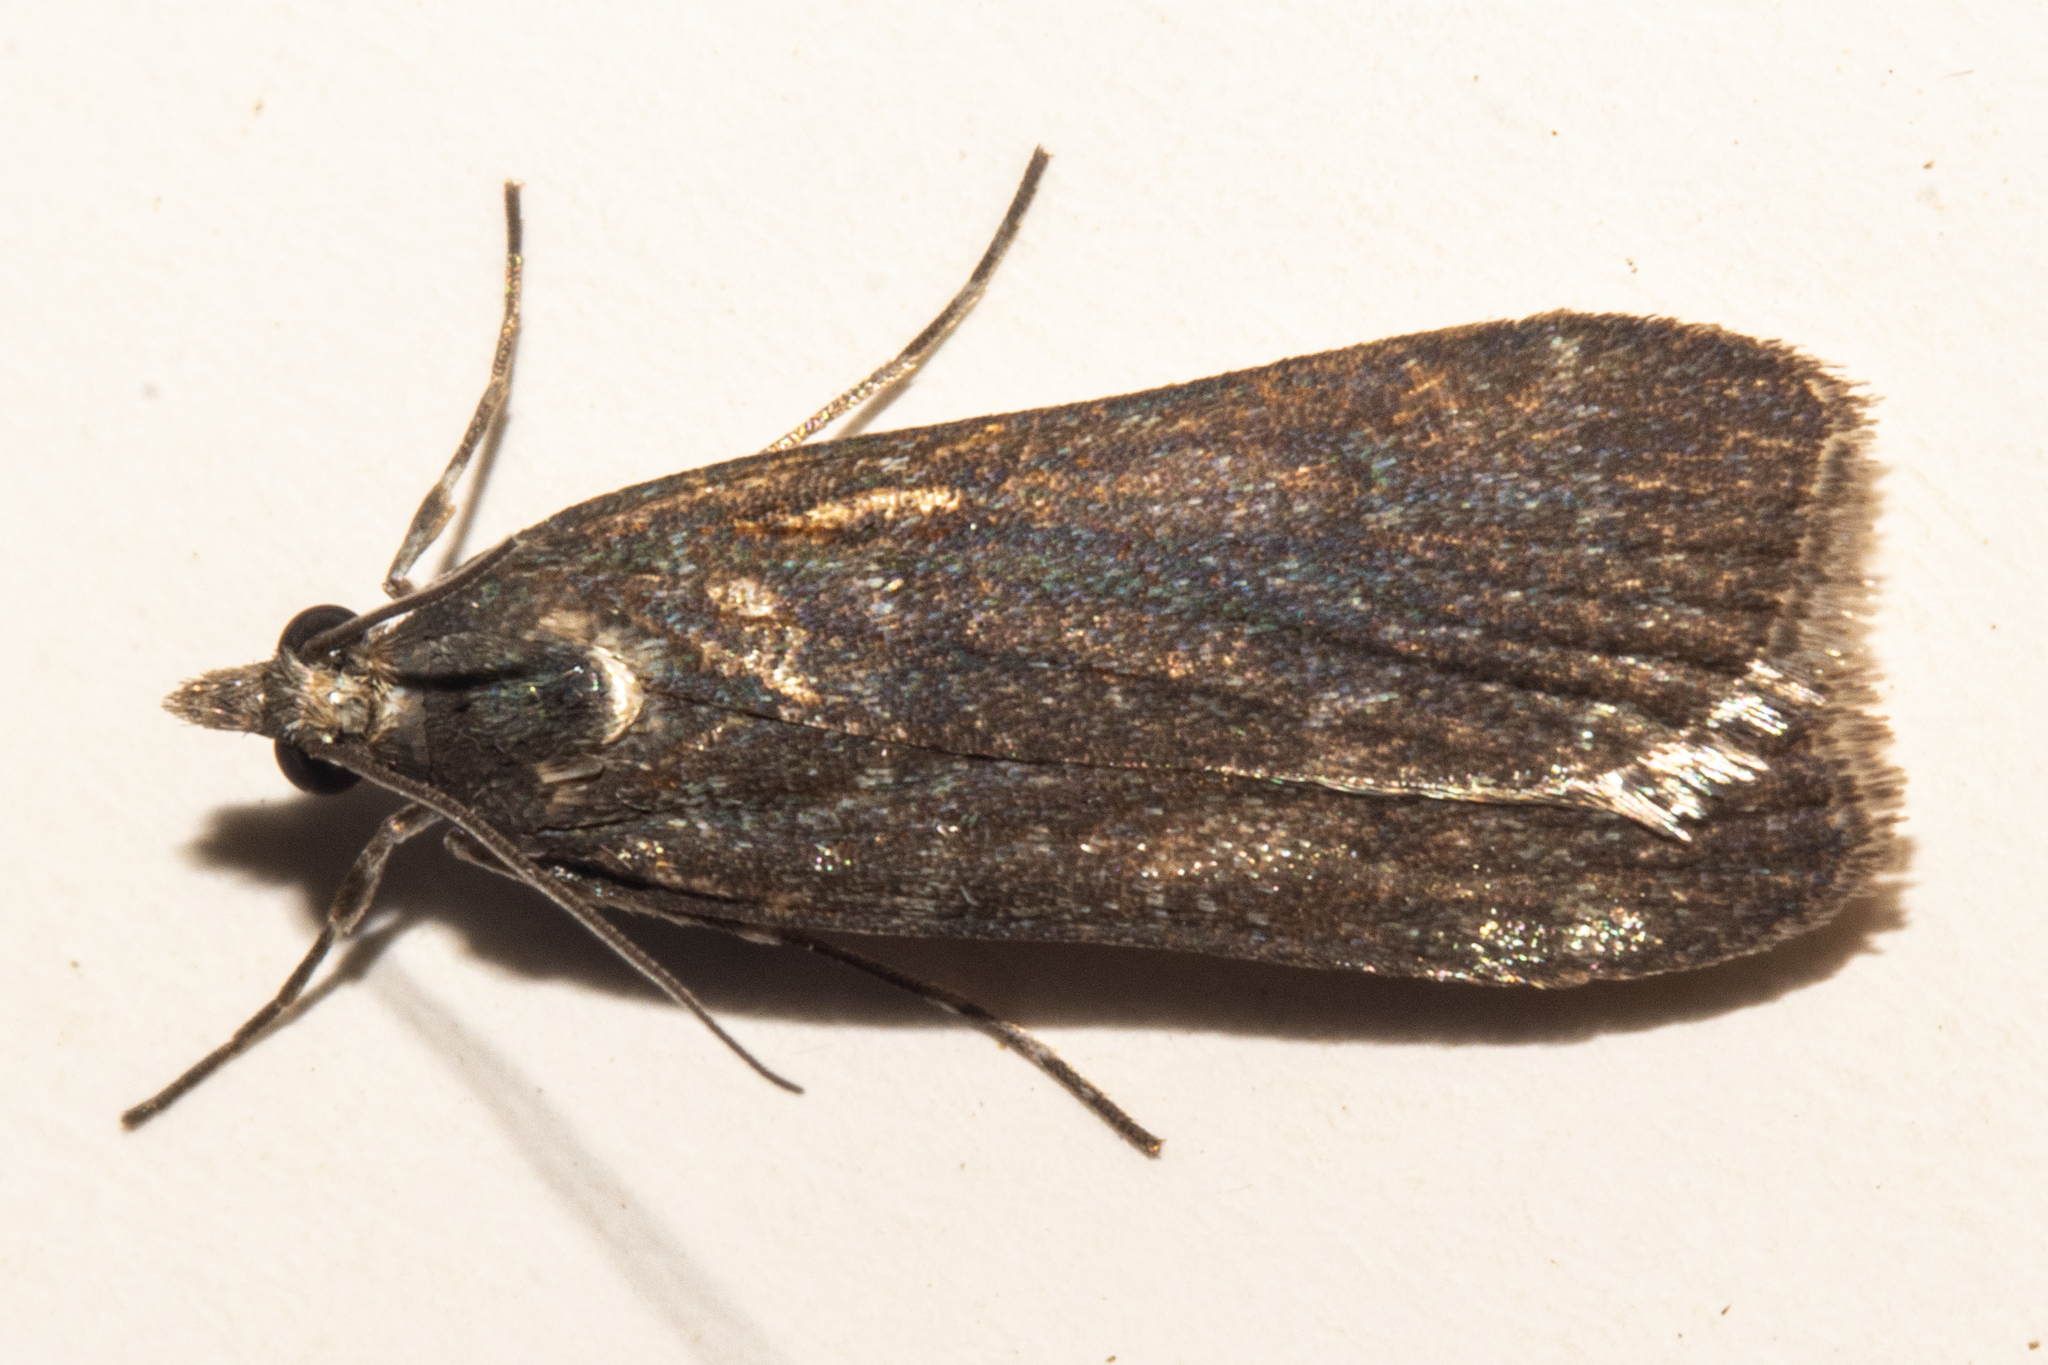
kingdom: Animalia
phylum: Arthropoda
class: Insecta
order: Lepidoptera
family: Crambidae
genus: Eudonia
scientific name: Eudonia cataxesta
